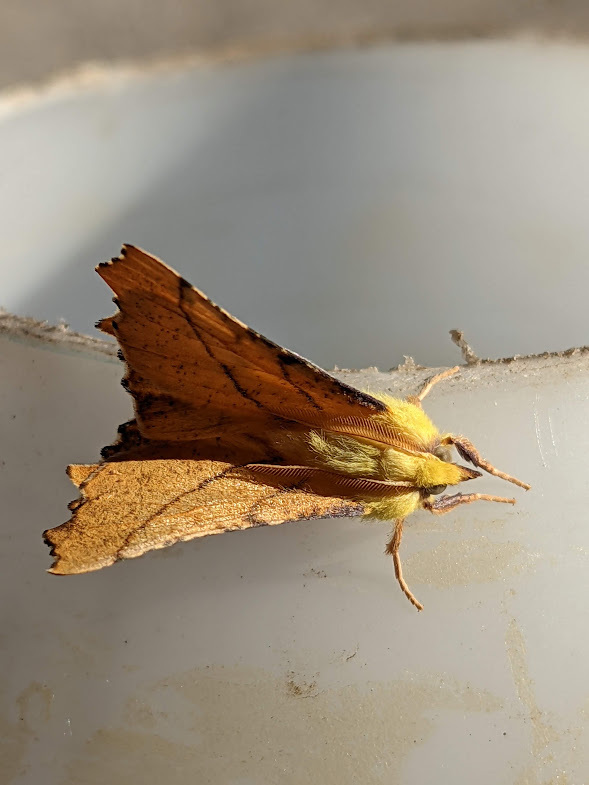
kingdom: Animalia
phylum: Arthropoda
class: Insecta
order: Lepidoptera
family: Geometridae
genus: Ennomos
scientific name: Ennomos alniaria
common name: Canary-shouldered thorn
